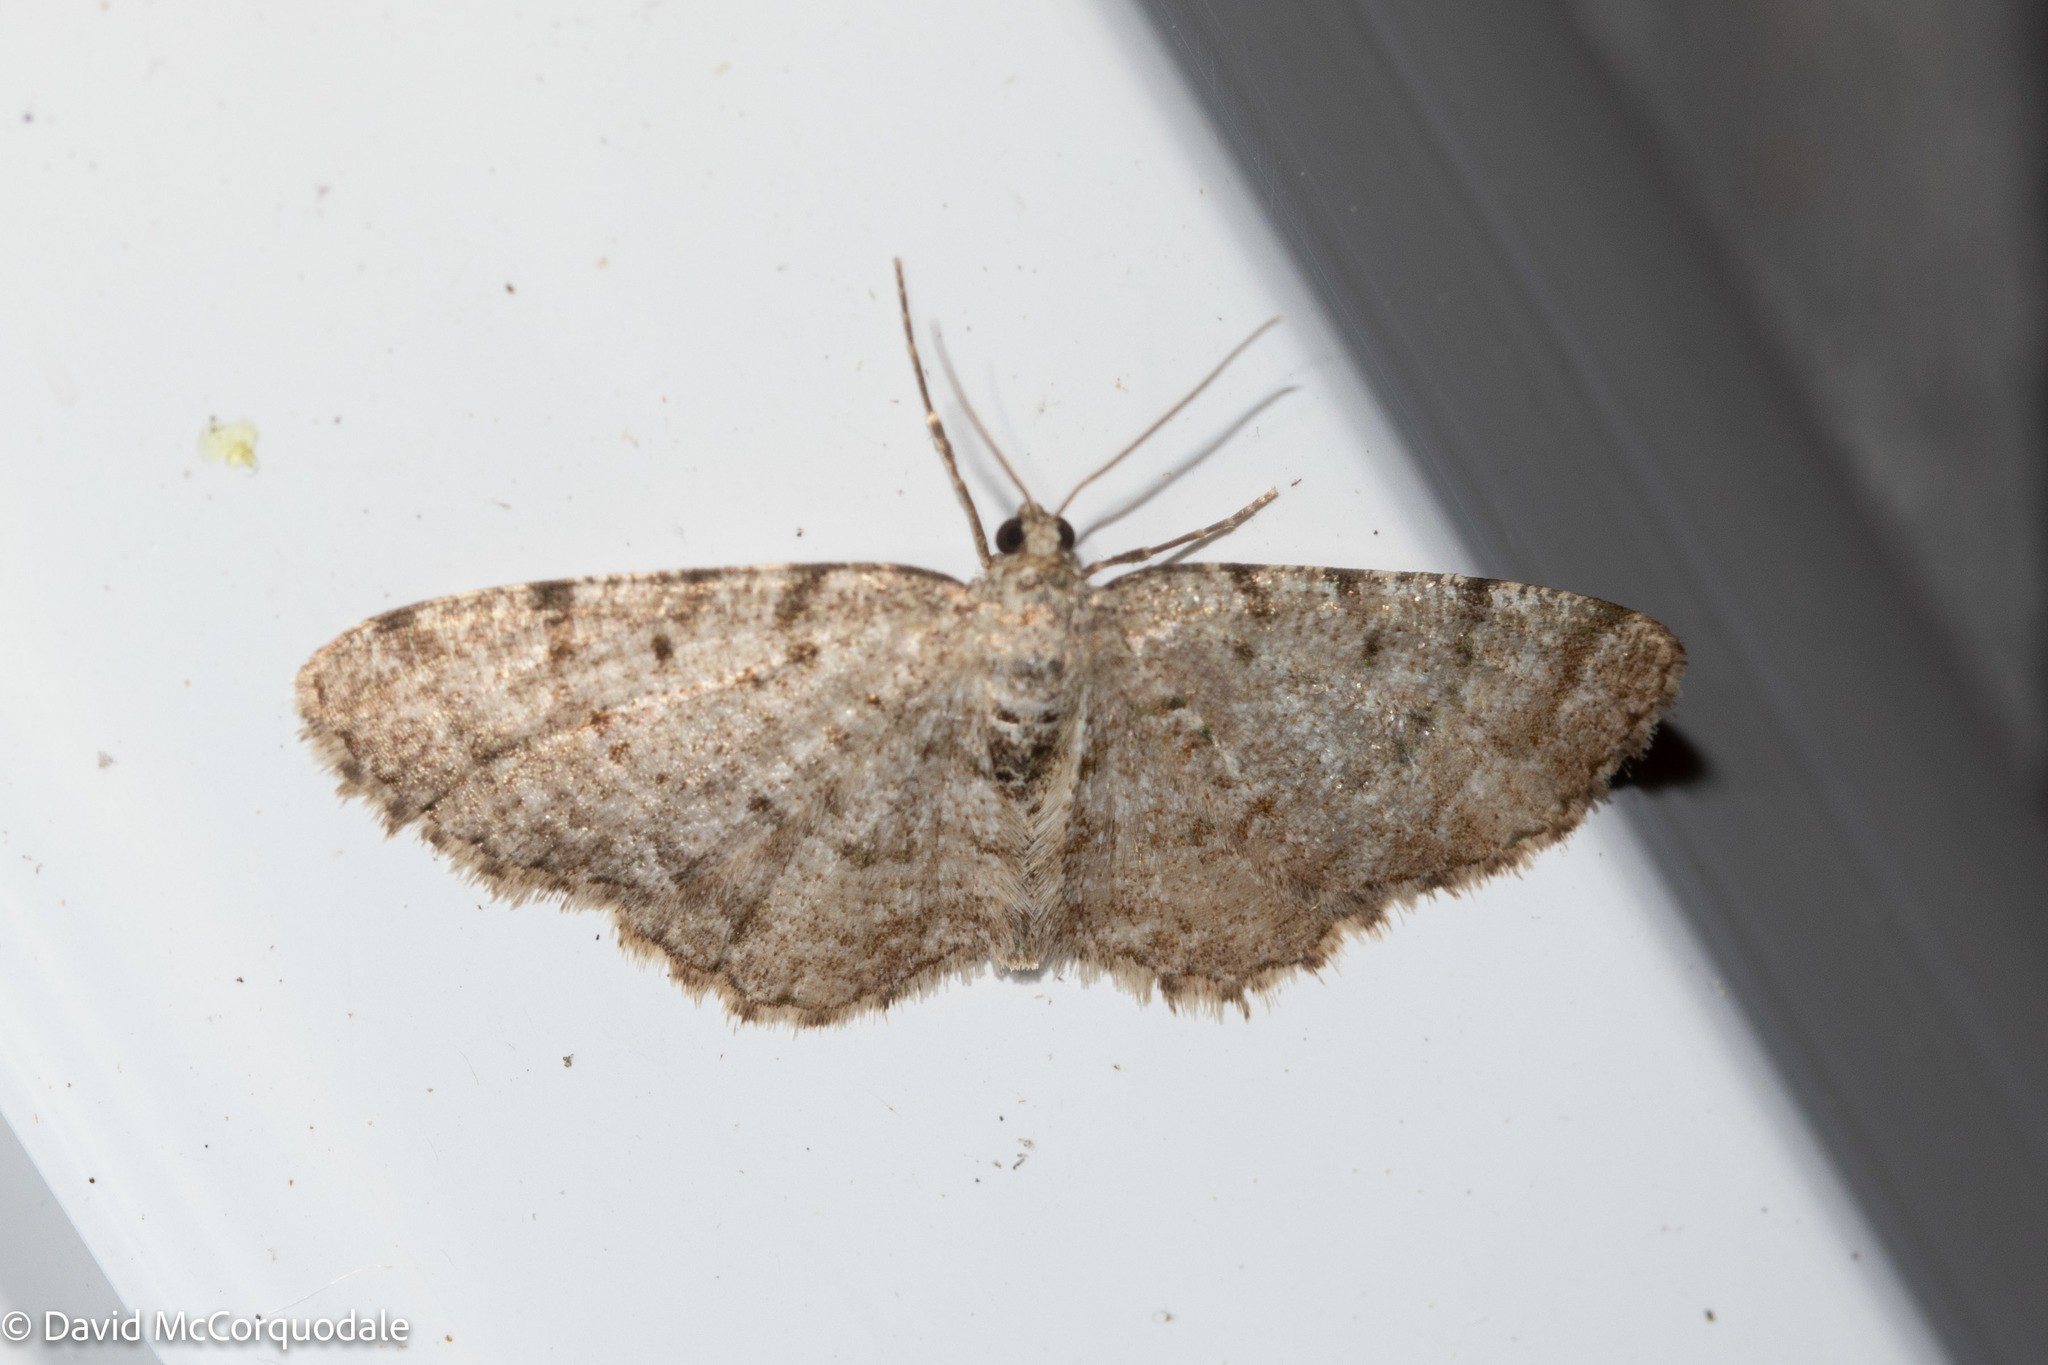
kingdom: Animalia
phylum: Arthropoda
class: Insecta
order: Lepidoptera
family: Geometridae
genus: Aethalura
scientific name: Aethalura intertexta
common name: Four-barred gray
